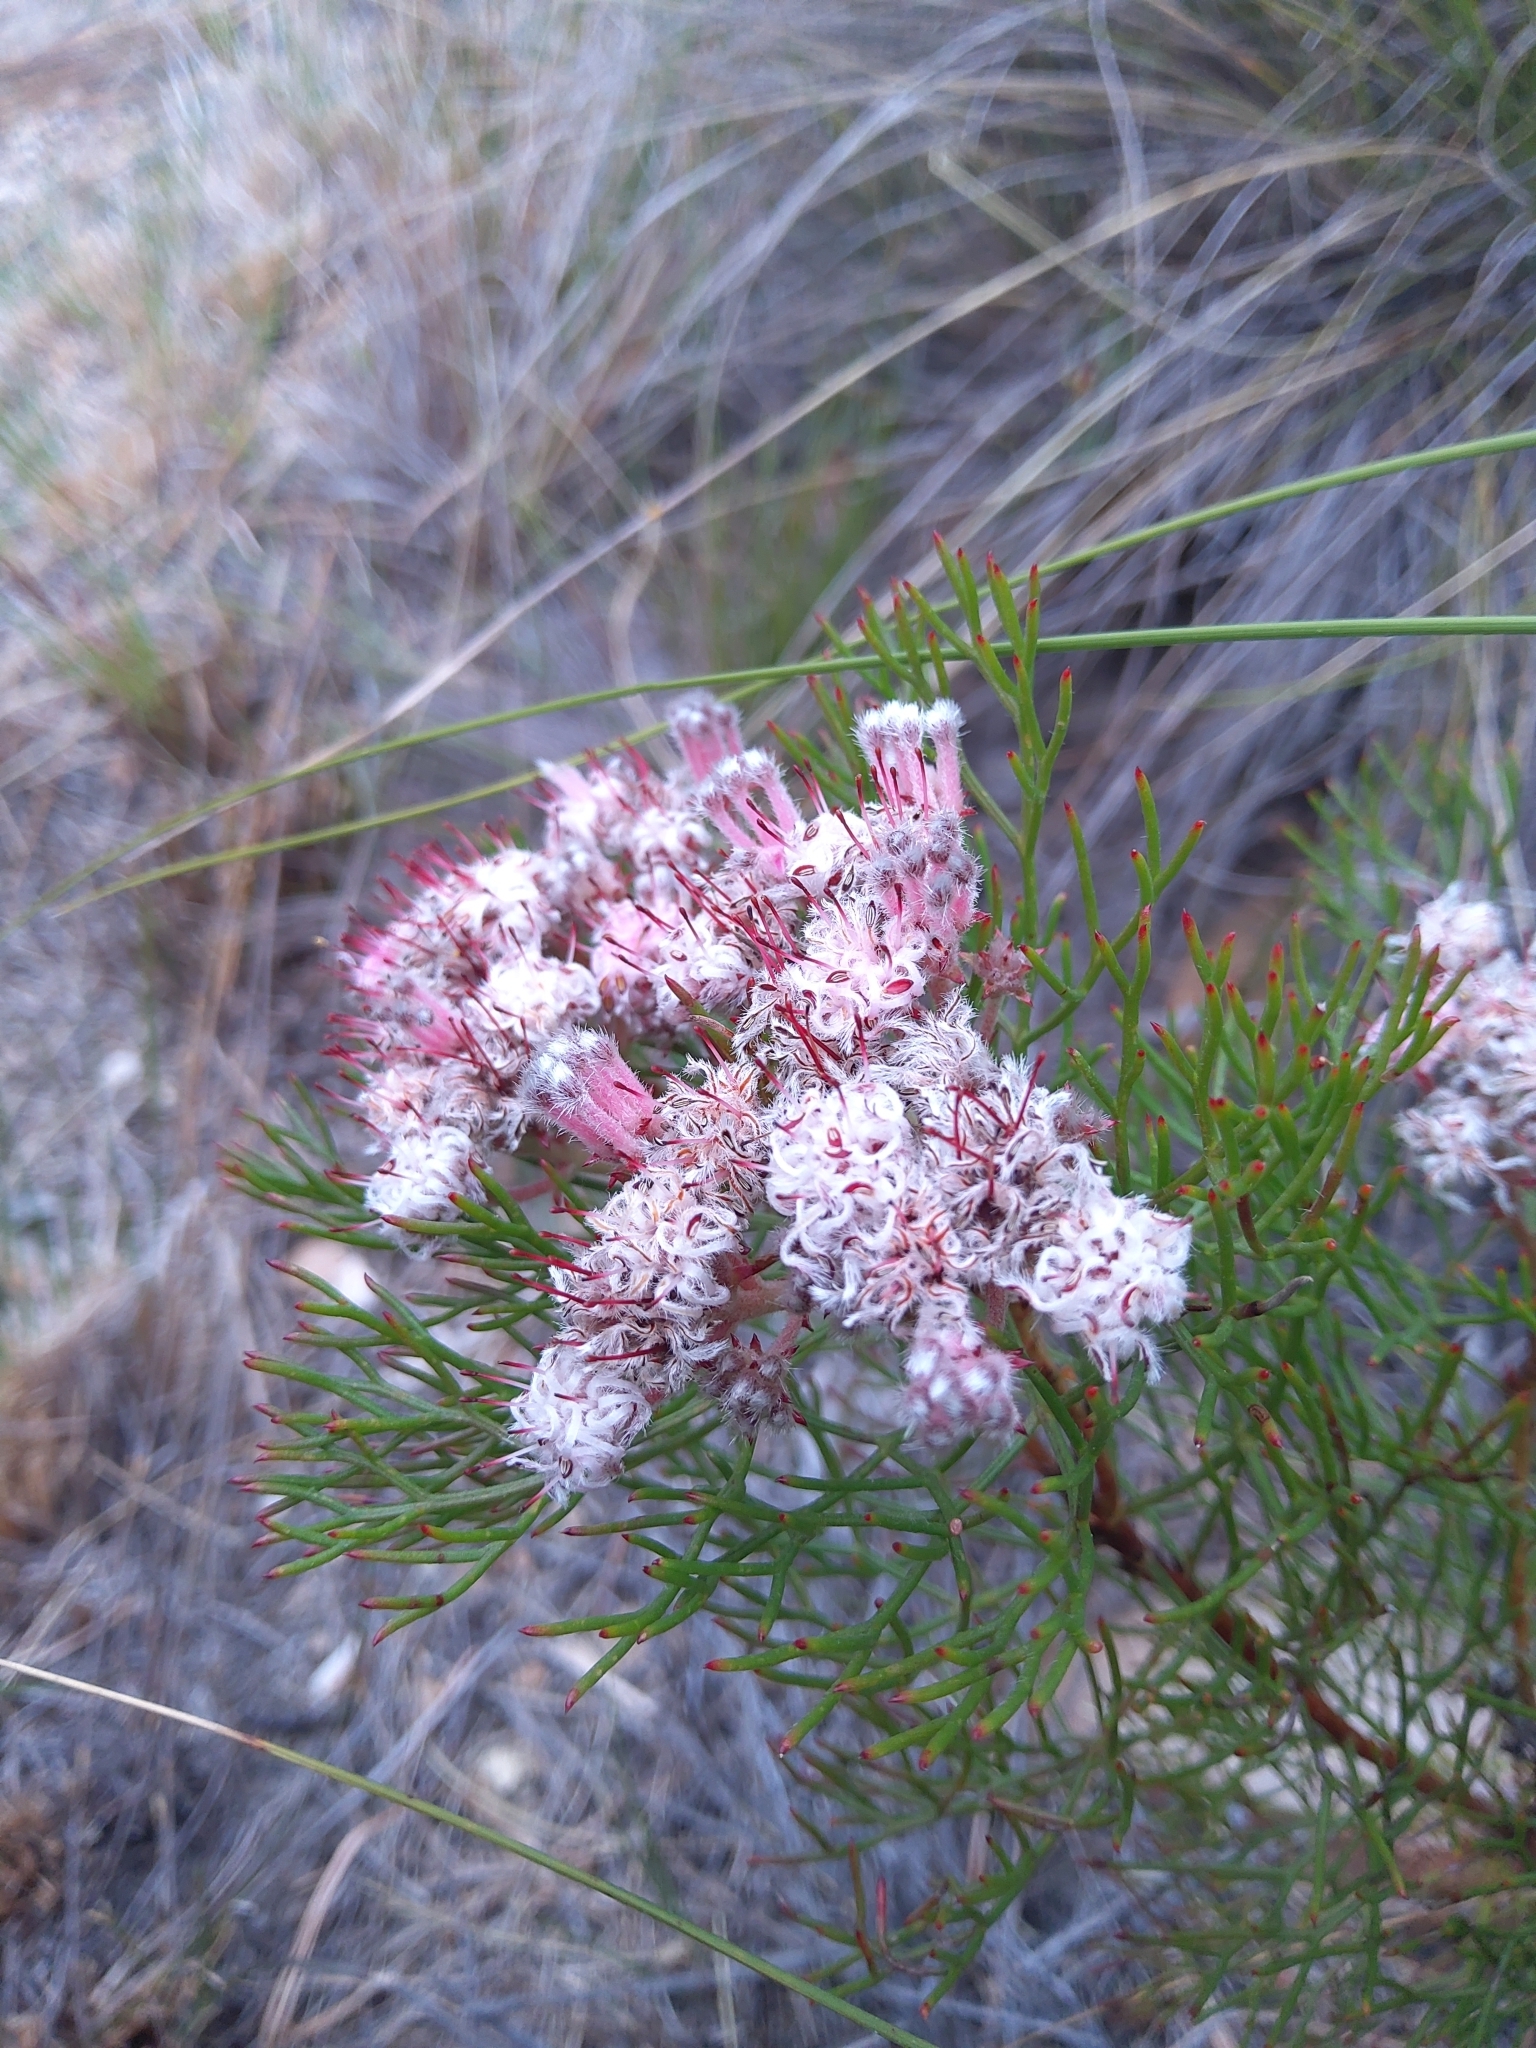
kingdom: Plantae
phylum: Tracheophyta
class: Magnoliopsida
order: Proteales
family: Proteaceae
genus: Serruria
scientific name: Serruria fasciflora
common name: Common pin spiderhead
